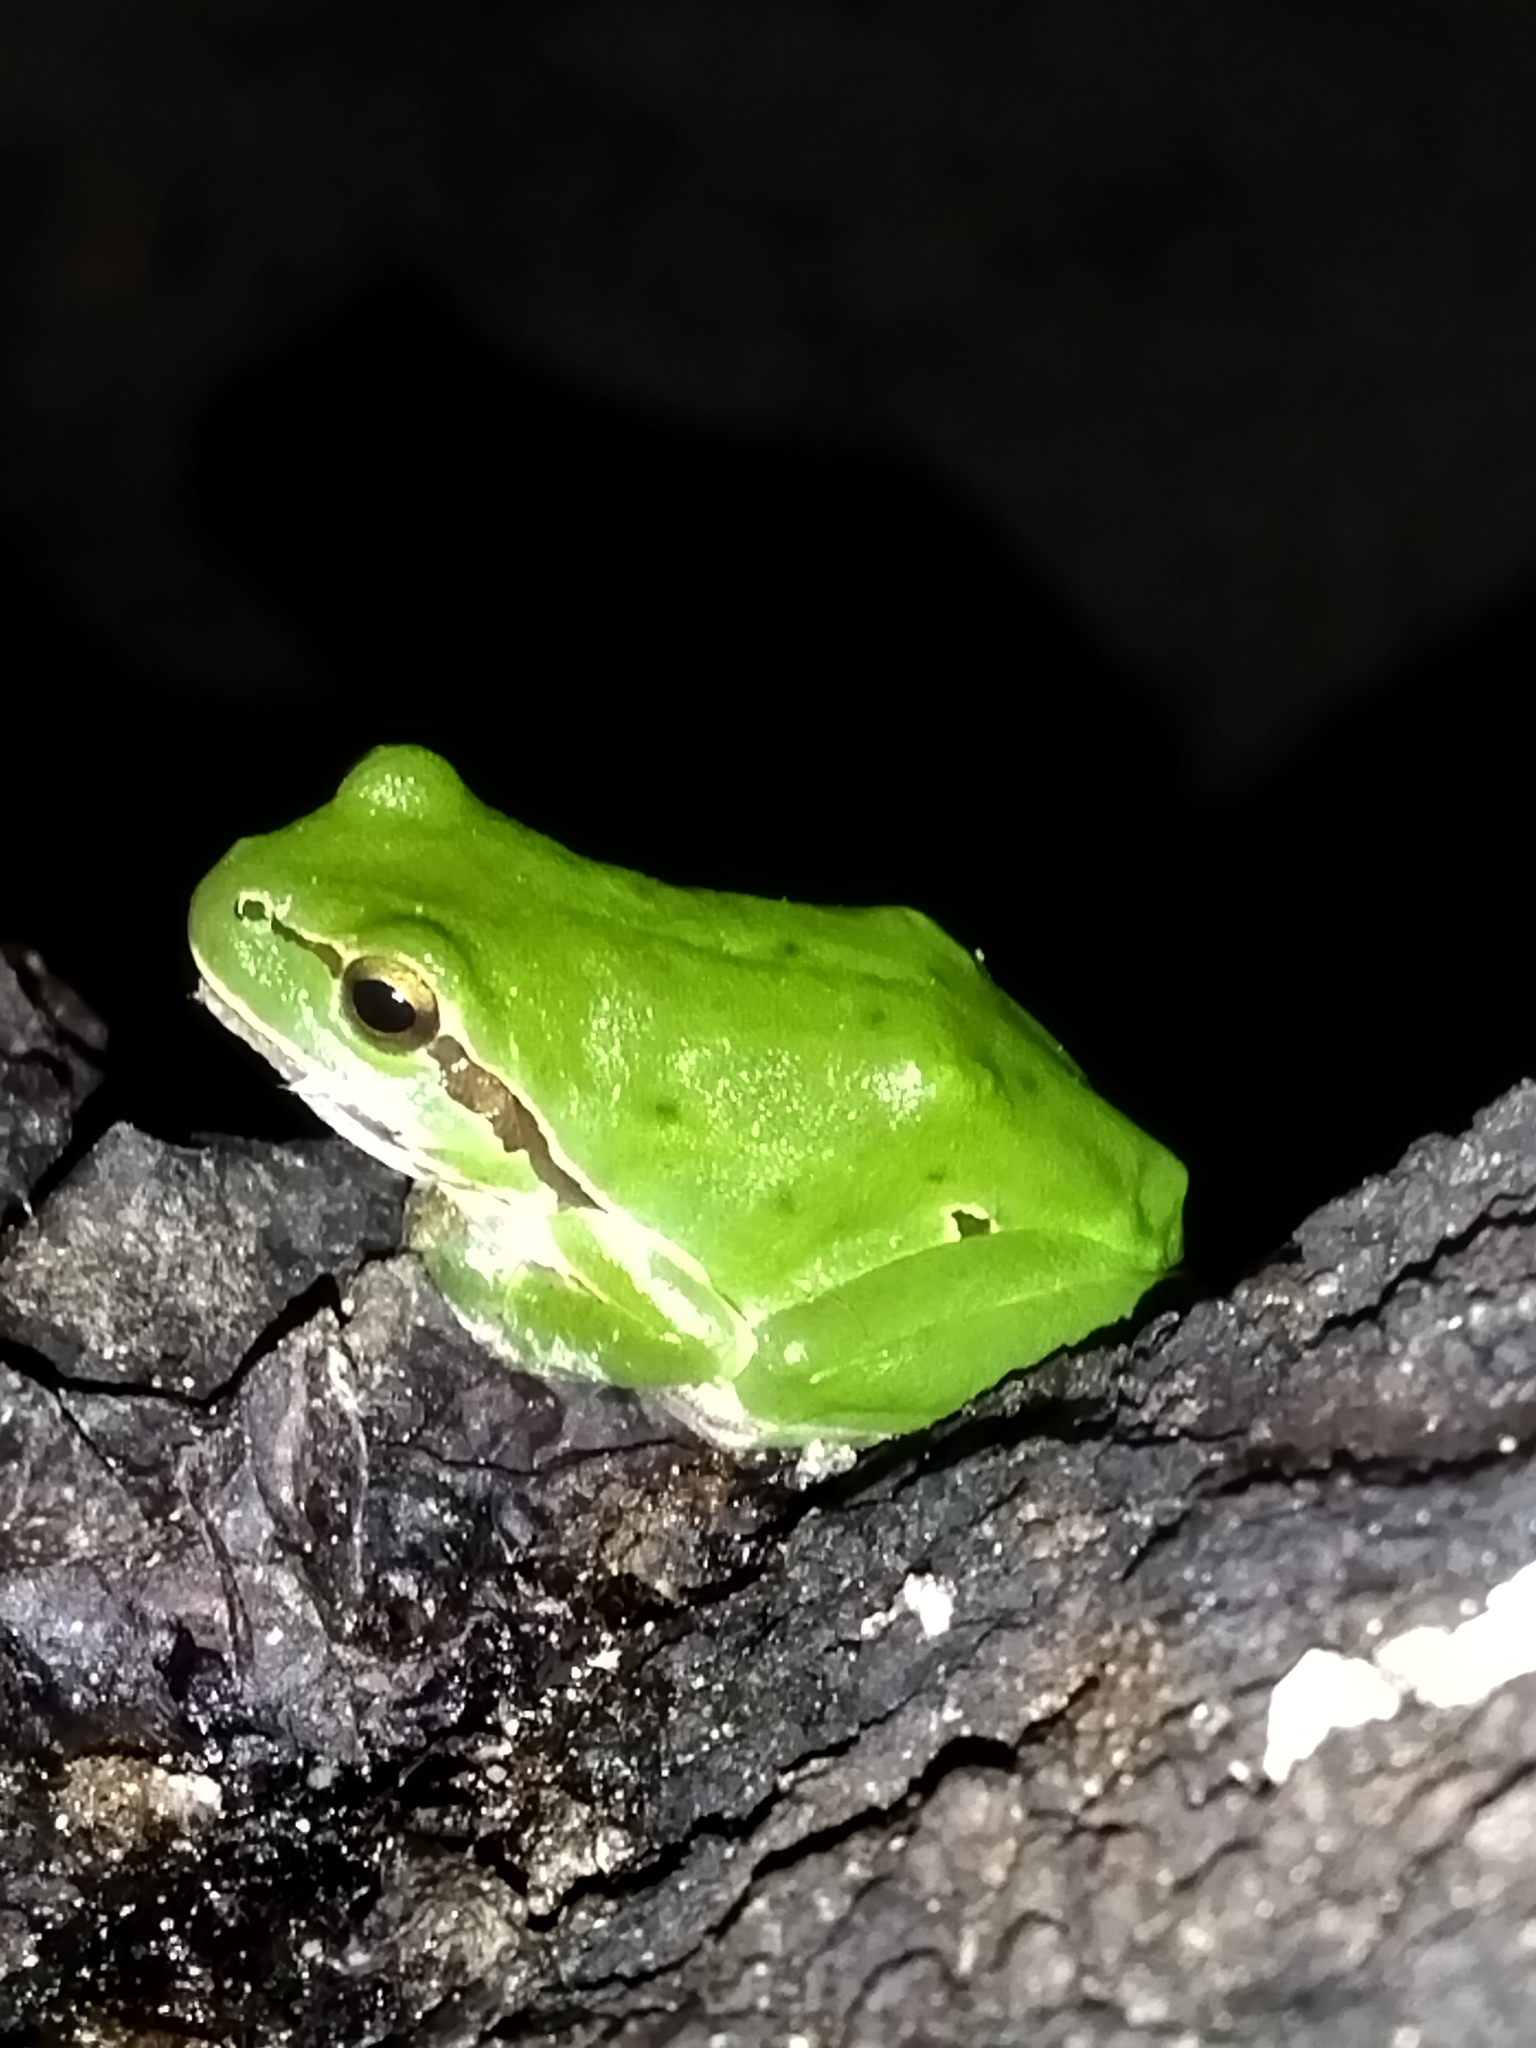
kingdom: Animalia
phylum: Chordata
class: Amphibia
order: Anura
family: Hylidae
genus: Hyla
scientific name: Hyla orientalis
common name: Caucasian treefrog
